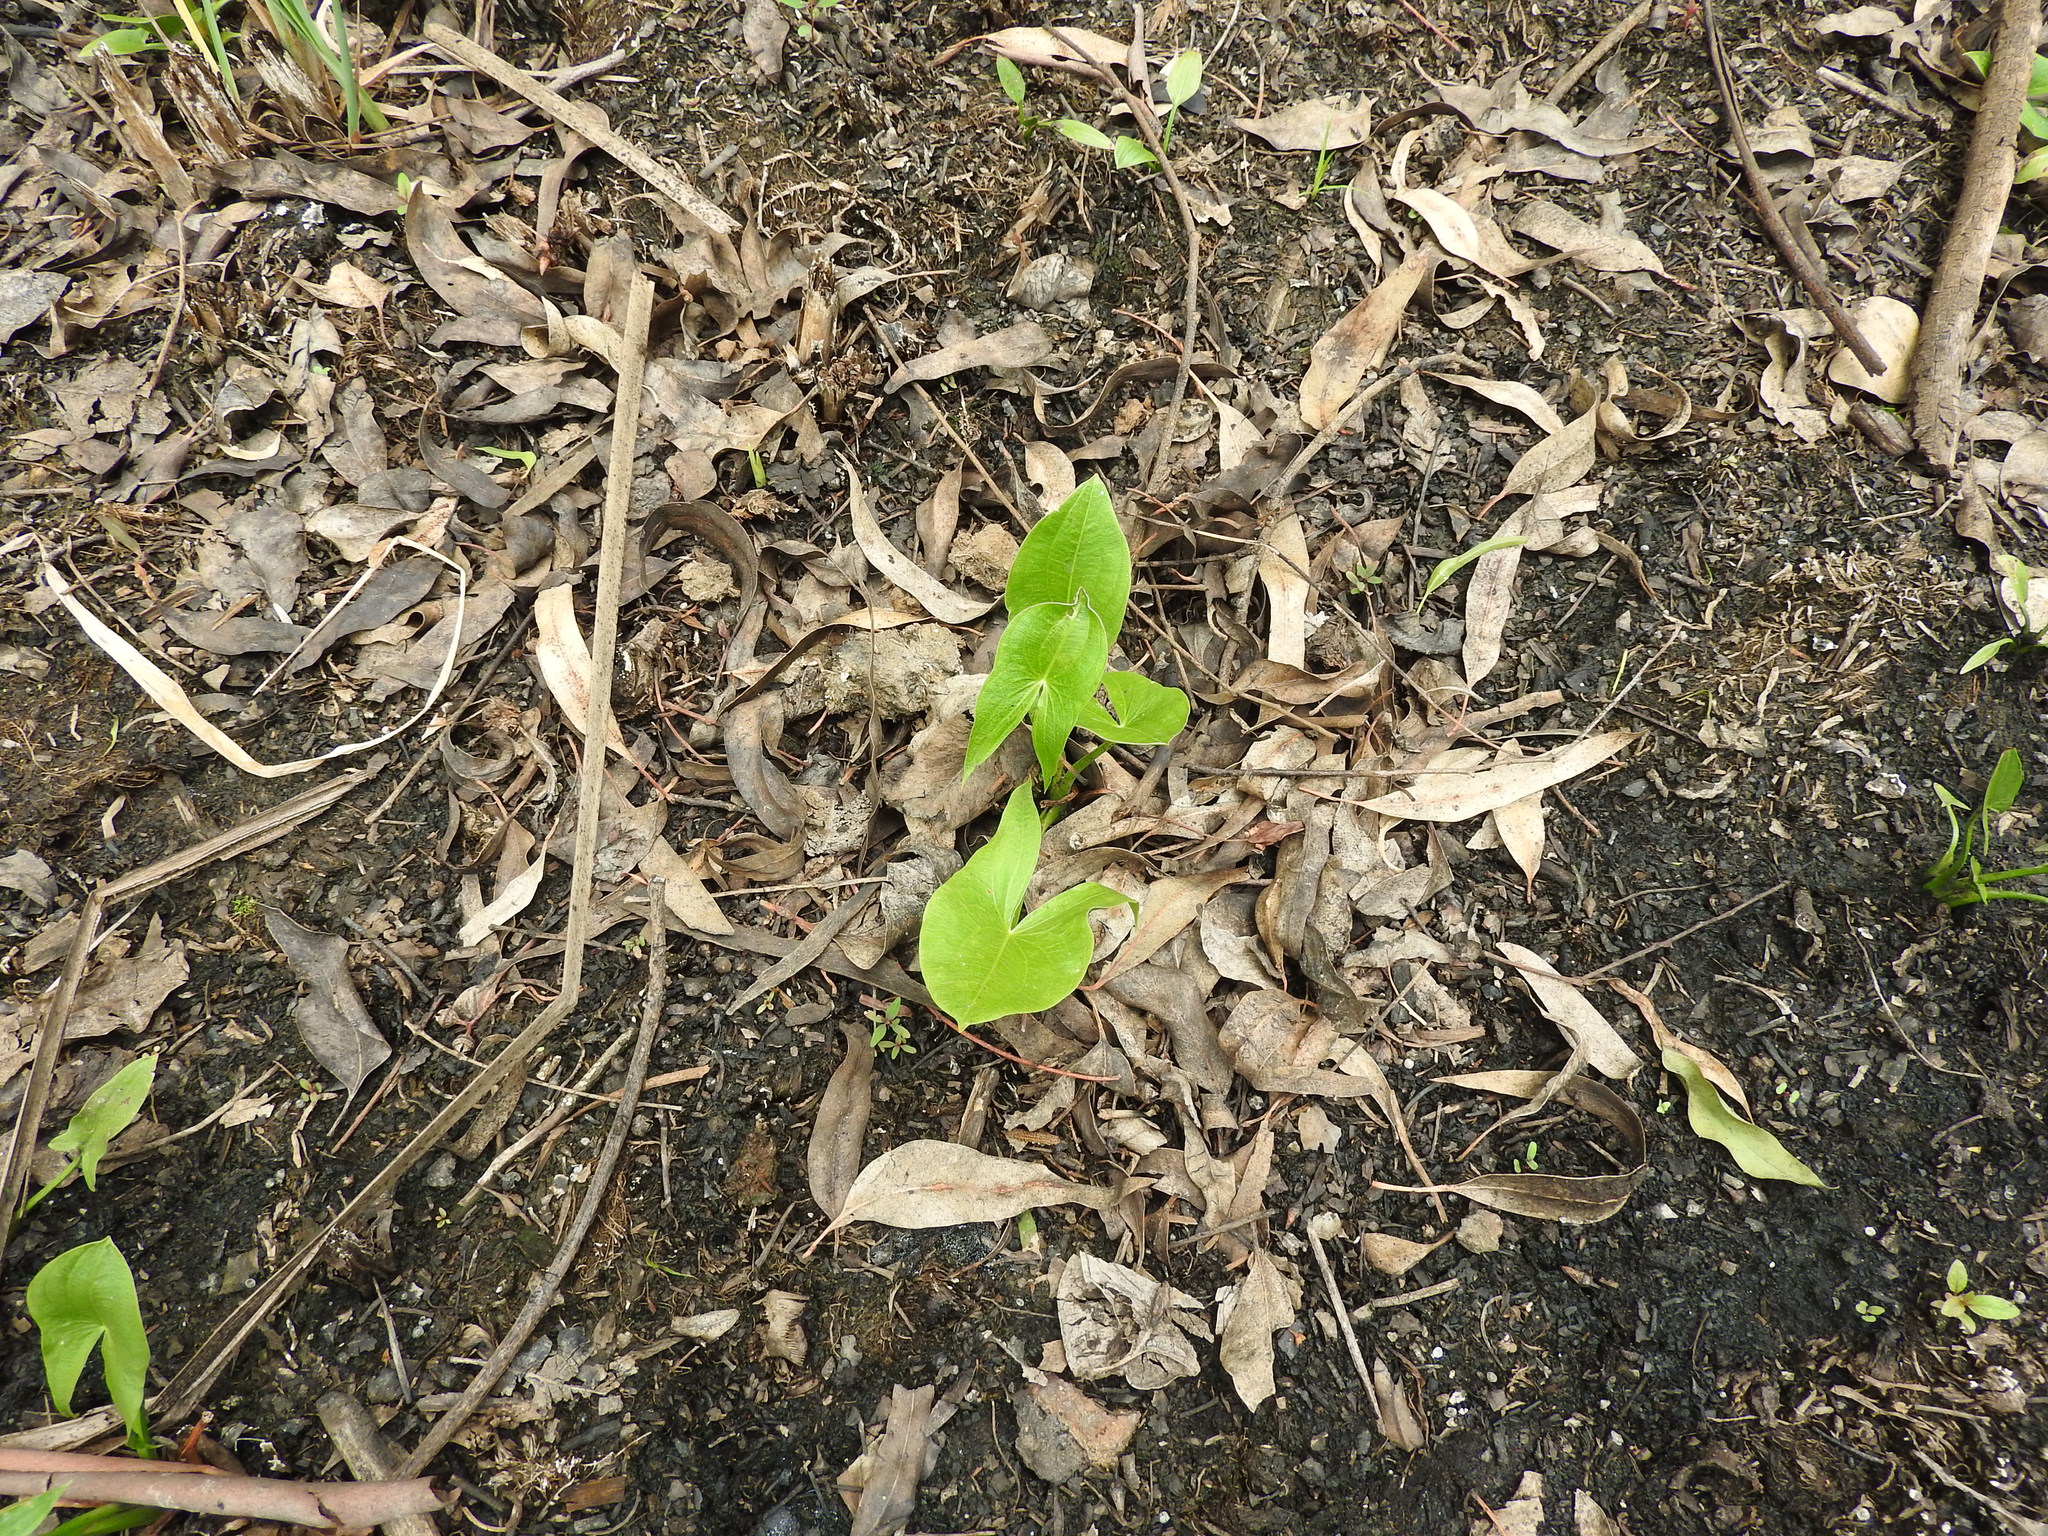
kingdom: Plantae
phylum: Tracheophyta
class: Liliopsida
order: Alismatales
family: Alismataceae
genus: Sagittaria
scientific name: Sagittaria latifolia
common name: Duck-potato
